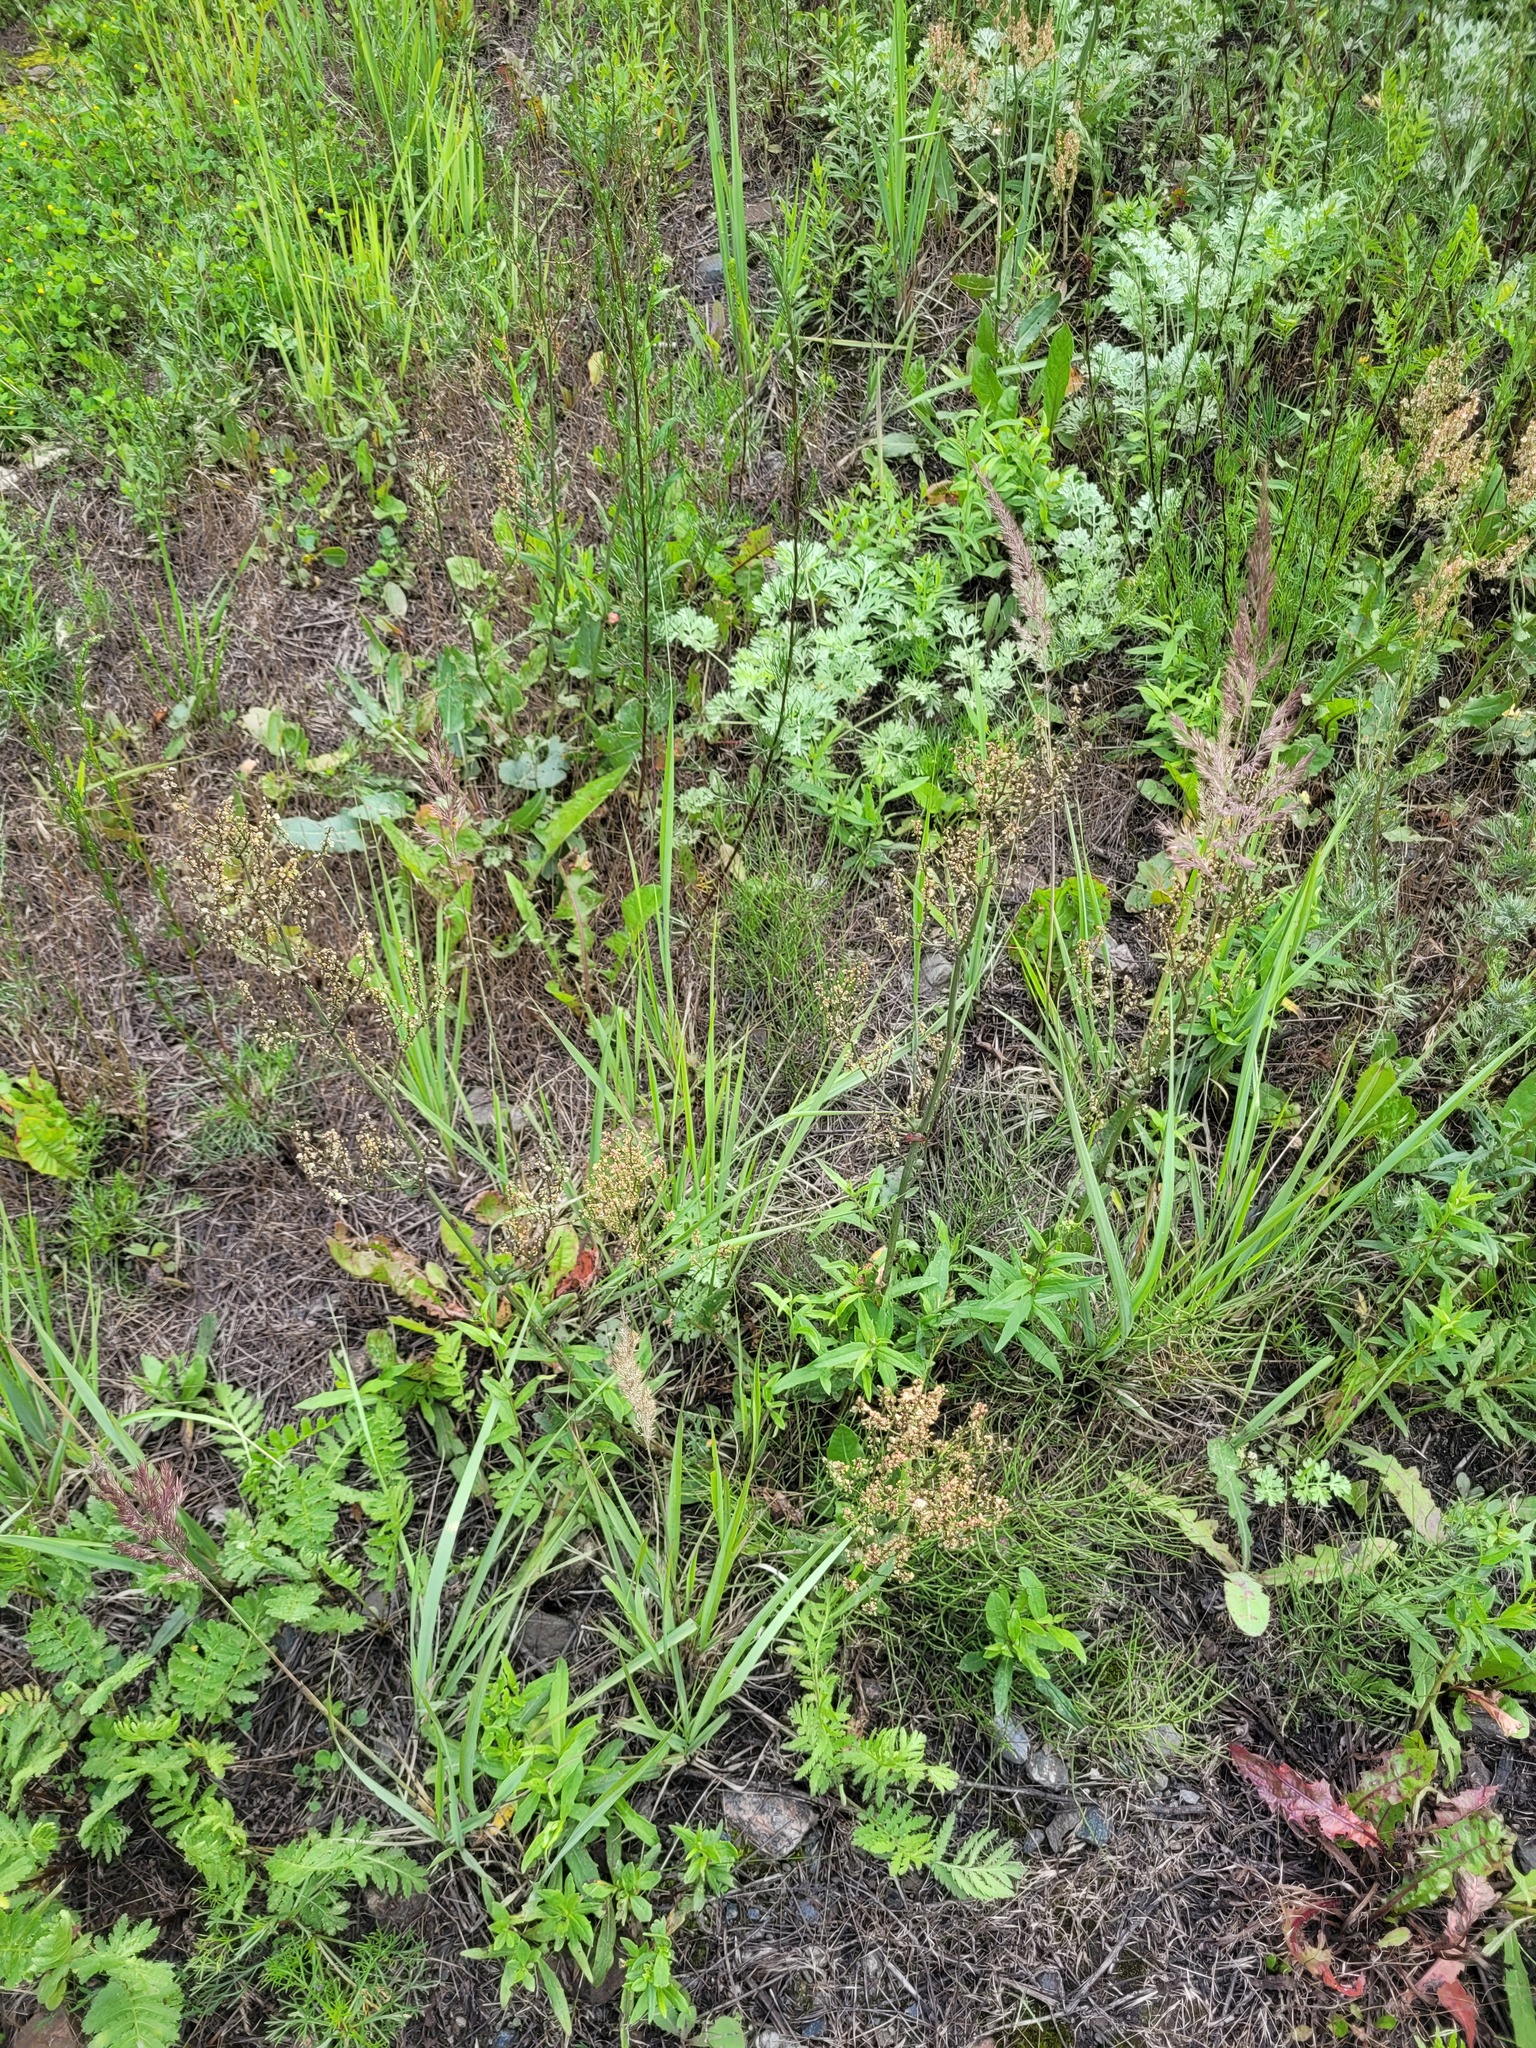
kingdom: Plantae
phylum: Tracheophyta
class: Magnoliopsida
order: Caryophyllales
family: Polygonaceae
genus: Rumex
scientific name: Rumex thyrsiflorus
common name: Garden sorrel
